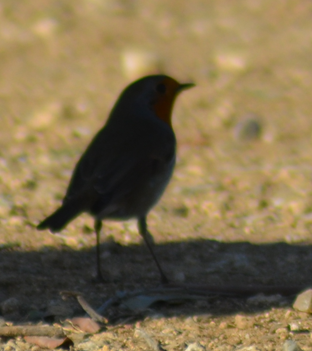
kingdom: Animalia
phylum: Chordata
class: Aves
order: Passeriformes
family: Muscicapidae
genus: Erithacus
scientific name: Erithacus rubecula
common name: European robin
